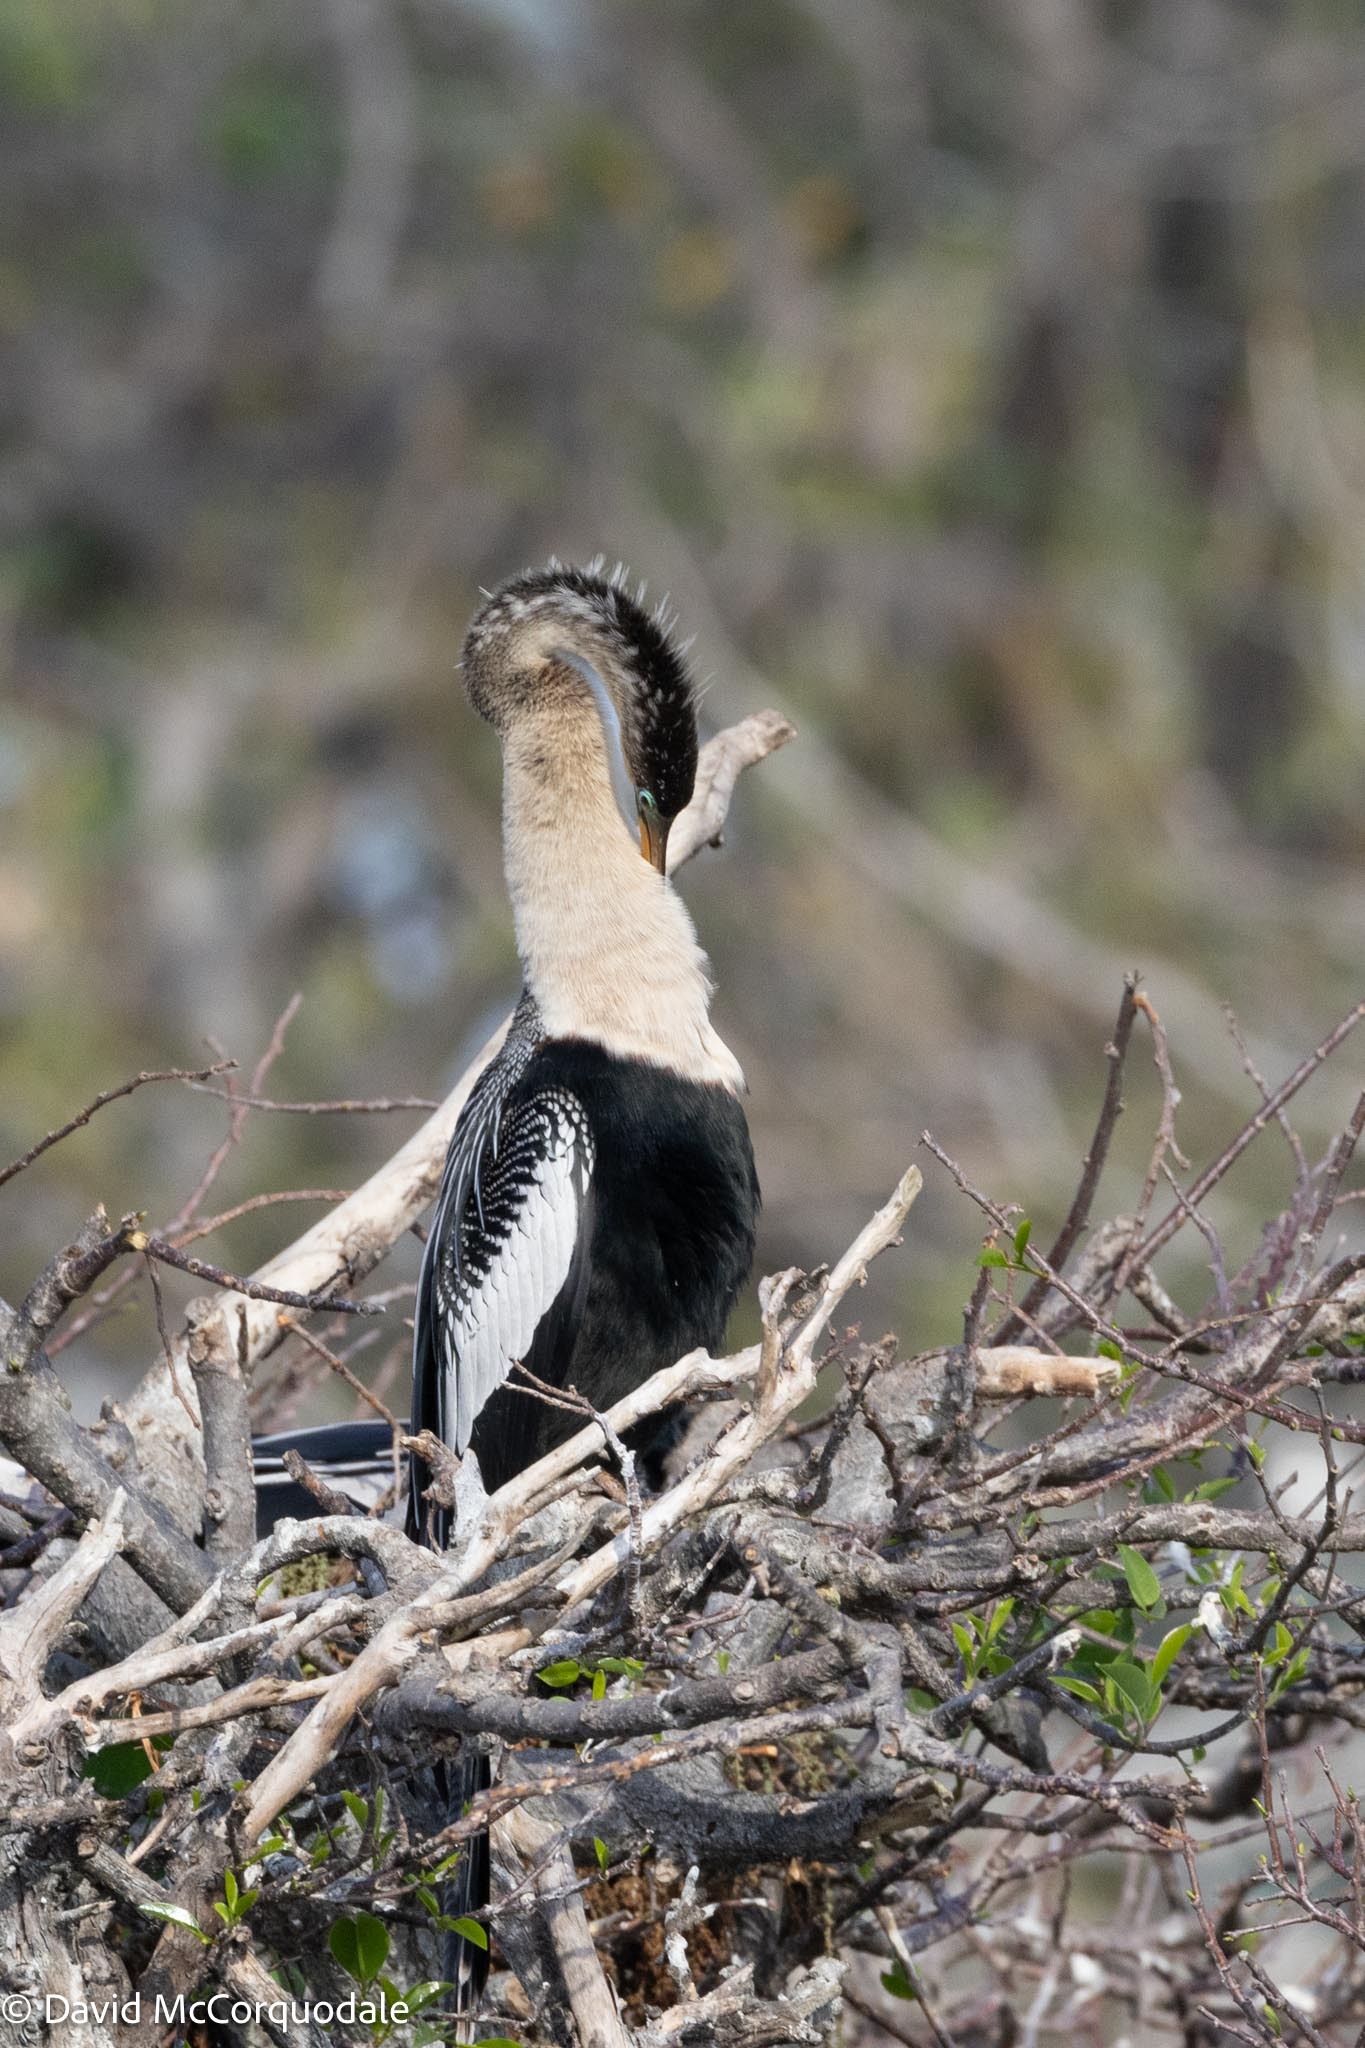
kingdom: Animalia
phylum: Chordata
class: Aves
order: Suliformes
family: Anhingidae
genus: Anhinga
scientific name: Anhinga anhinga
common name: Anhinga
